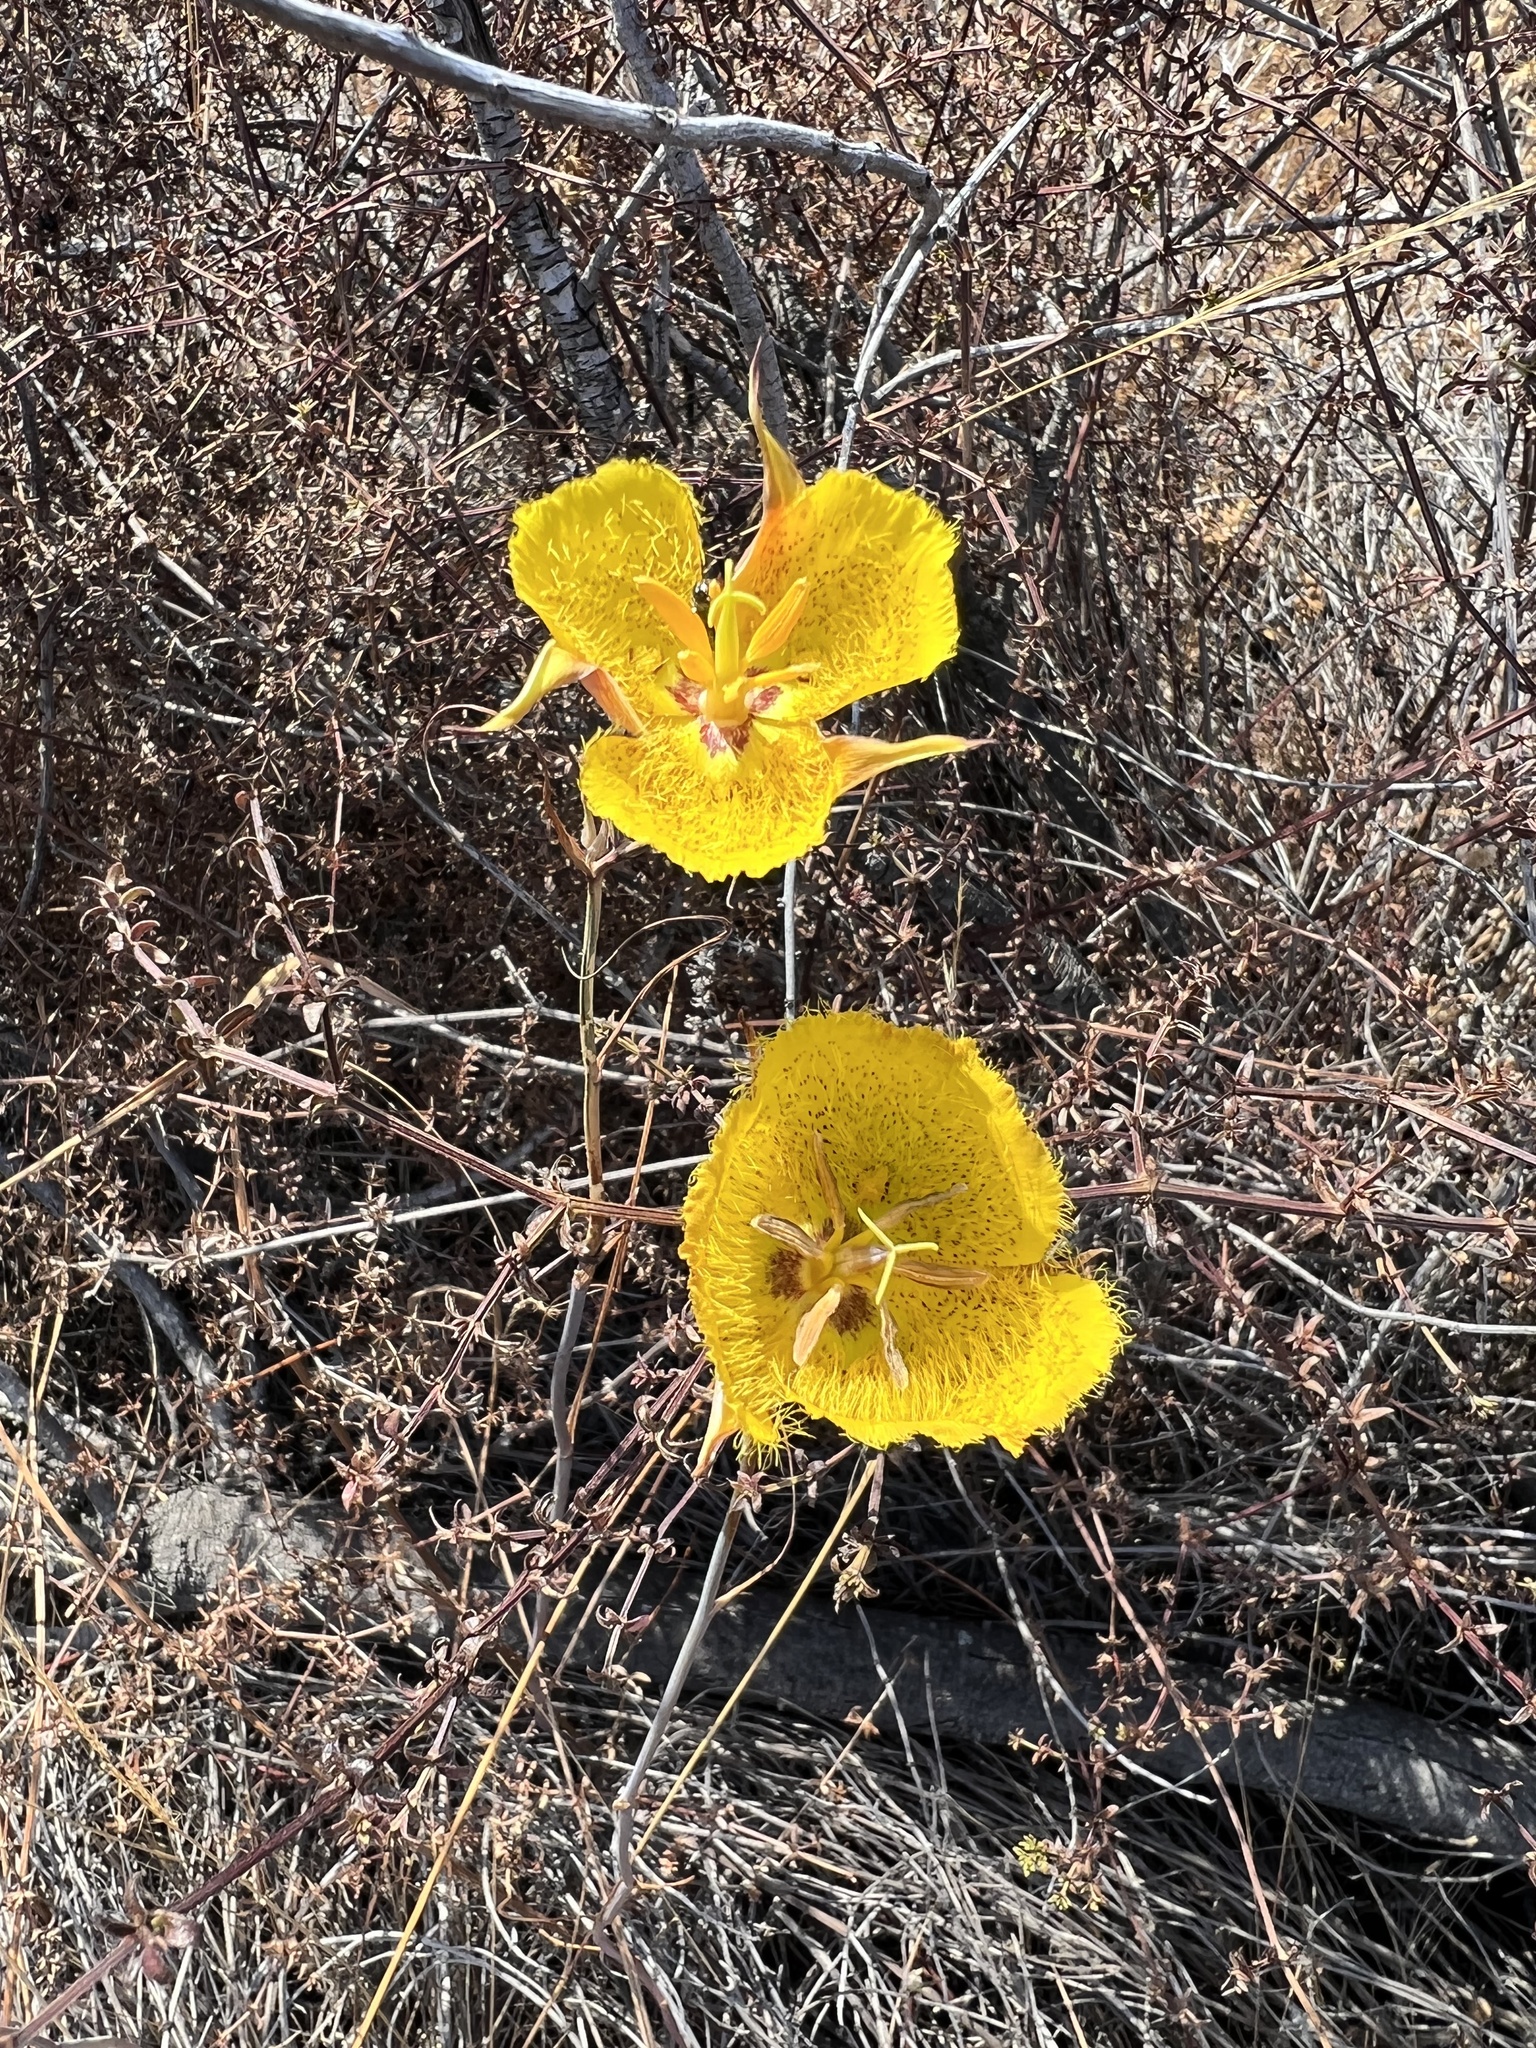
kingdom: Plantae
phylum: Tracheophyta
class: Liliopsida
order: Liliales
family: Liliaceae
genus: Calochortus
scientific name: Calochortus weedii
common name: Weed's mariposa-lily
